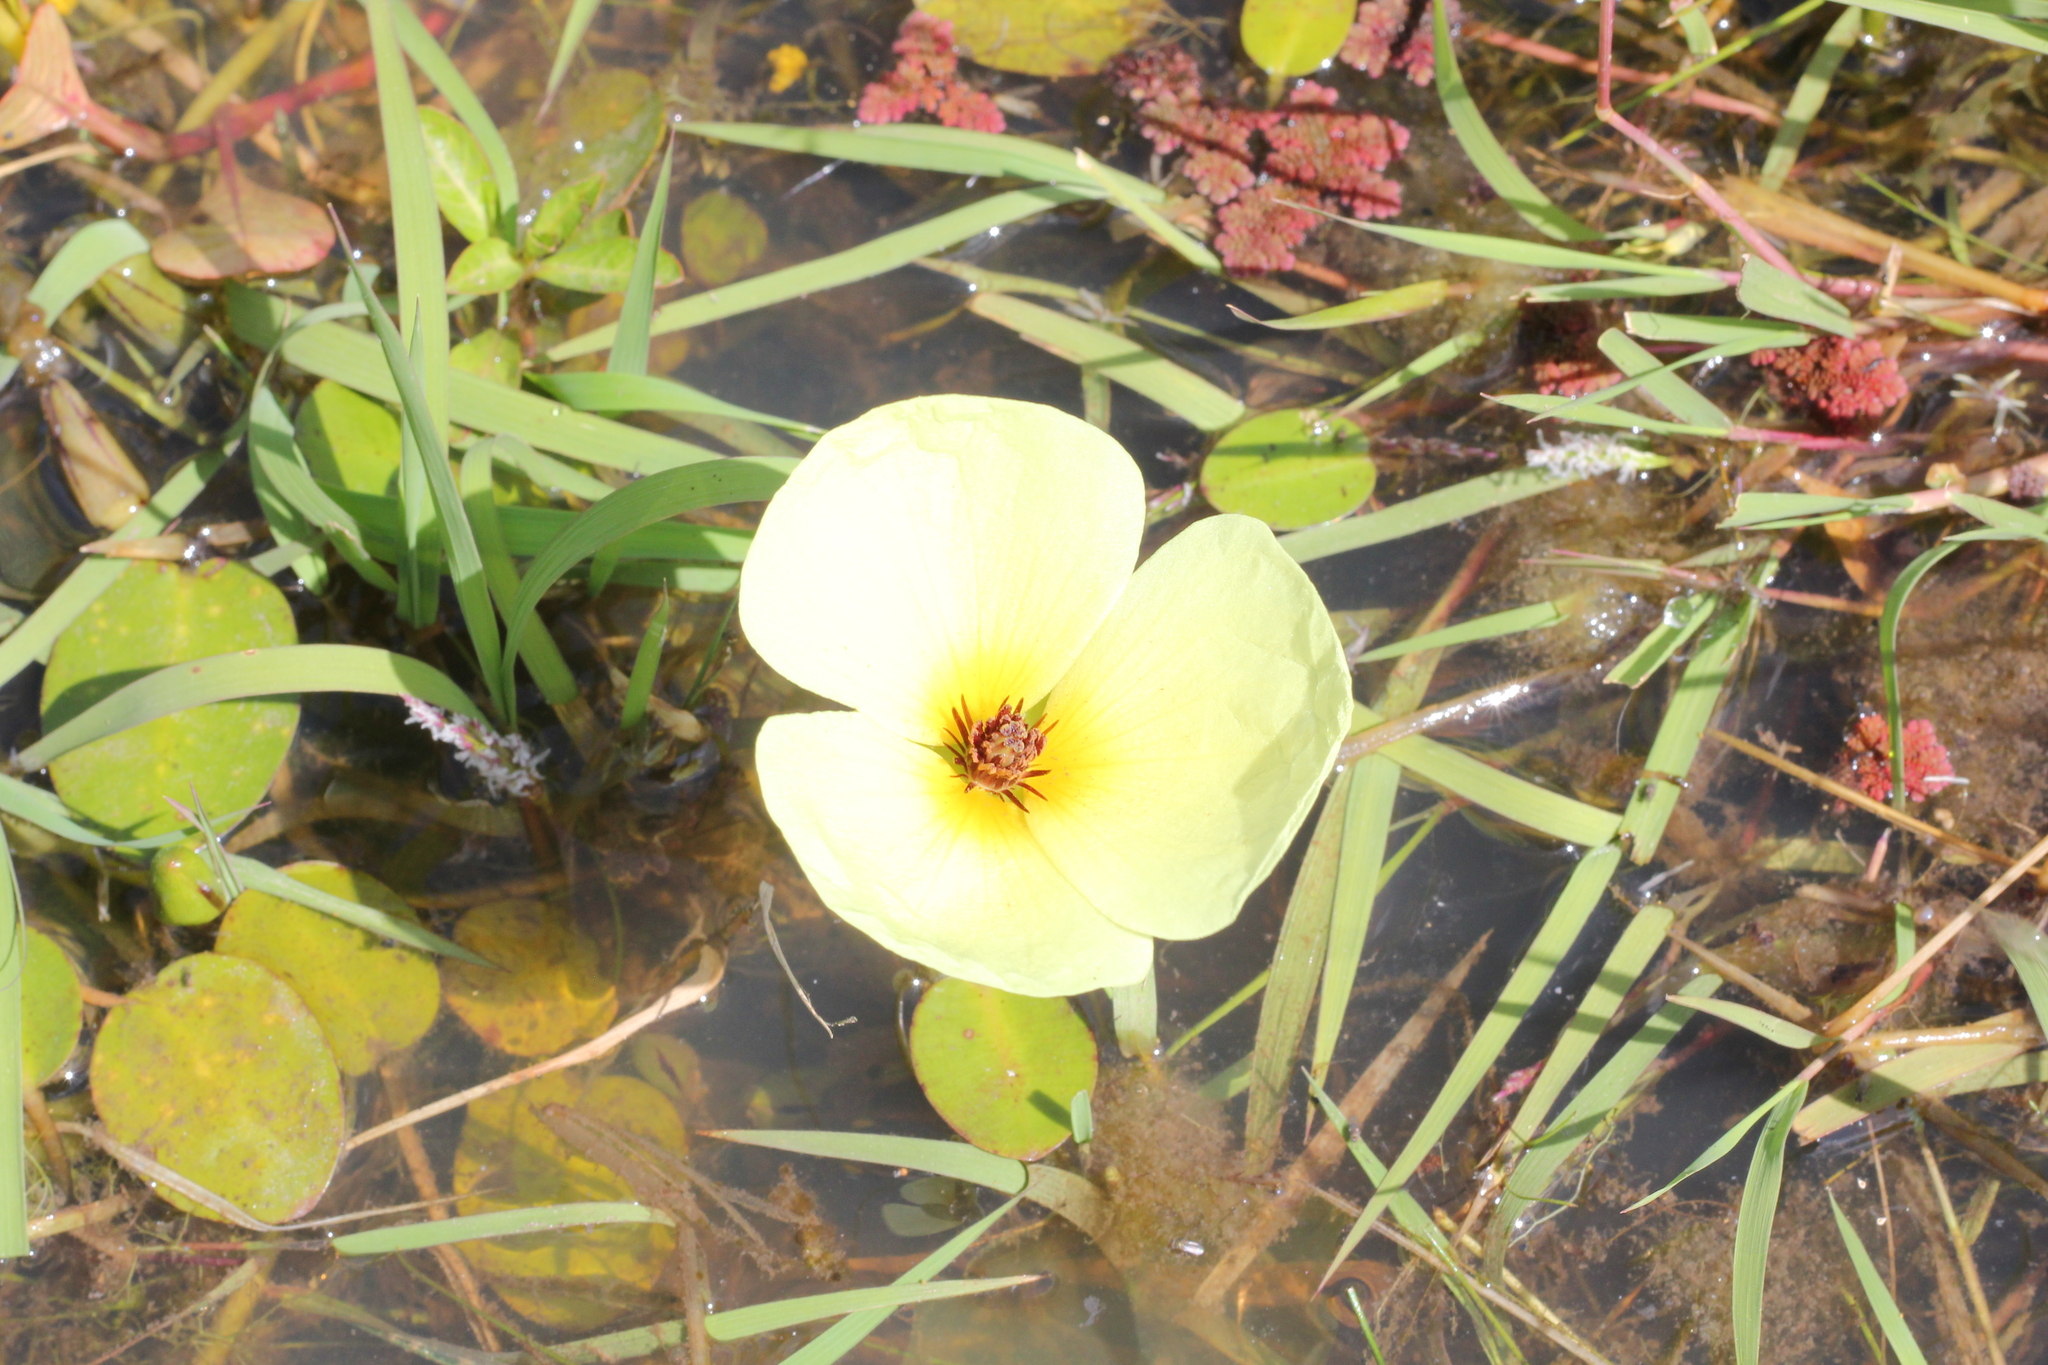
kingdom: Plantae
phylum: Tracheophyta
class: Liliopsida
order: Alismatales
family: Alismataceae
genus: Hydrocleys
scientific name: Hydrocleys nymphoides
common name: Water-poppy
